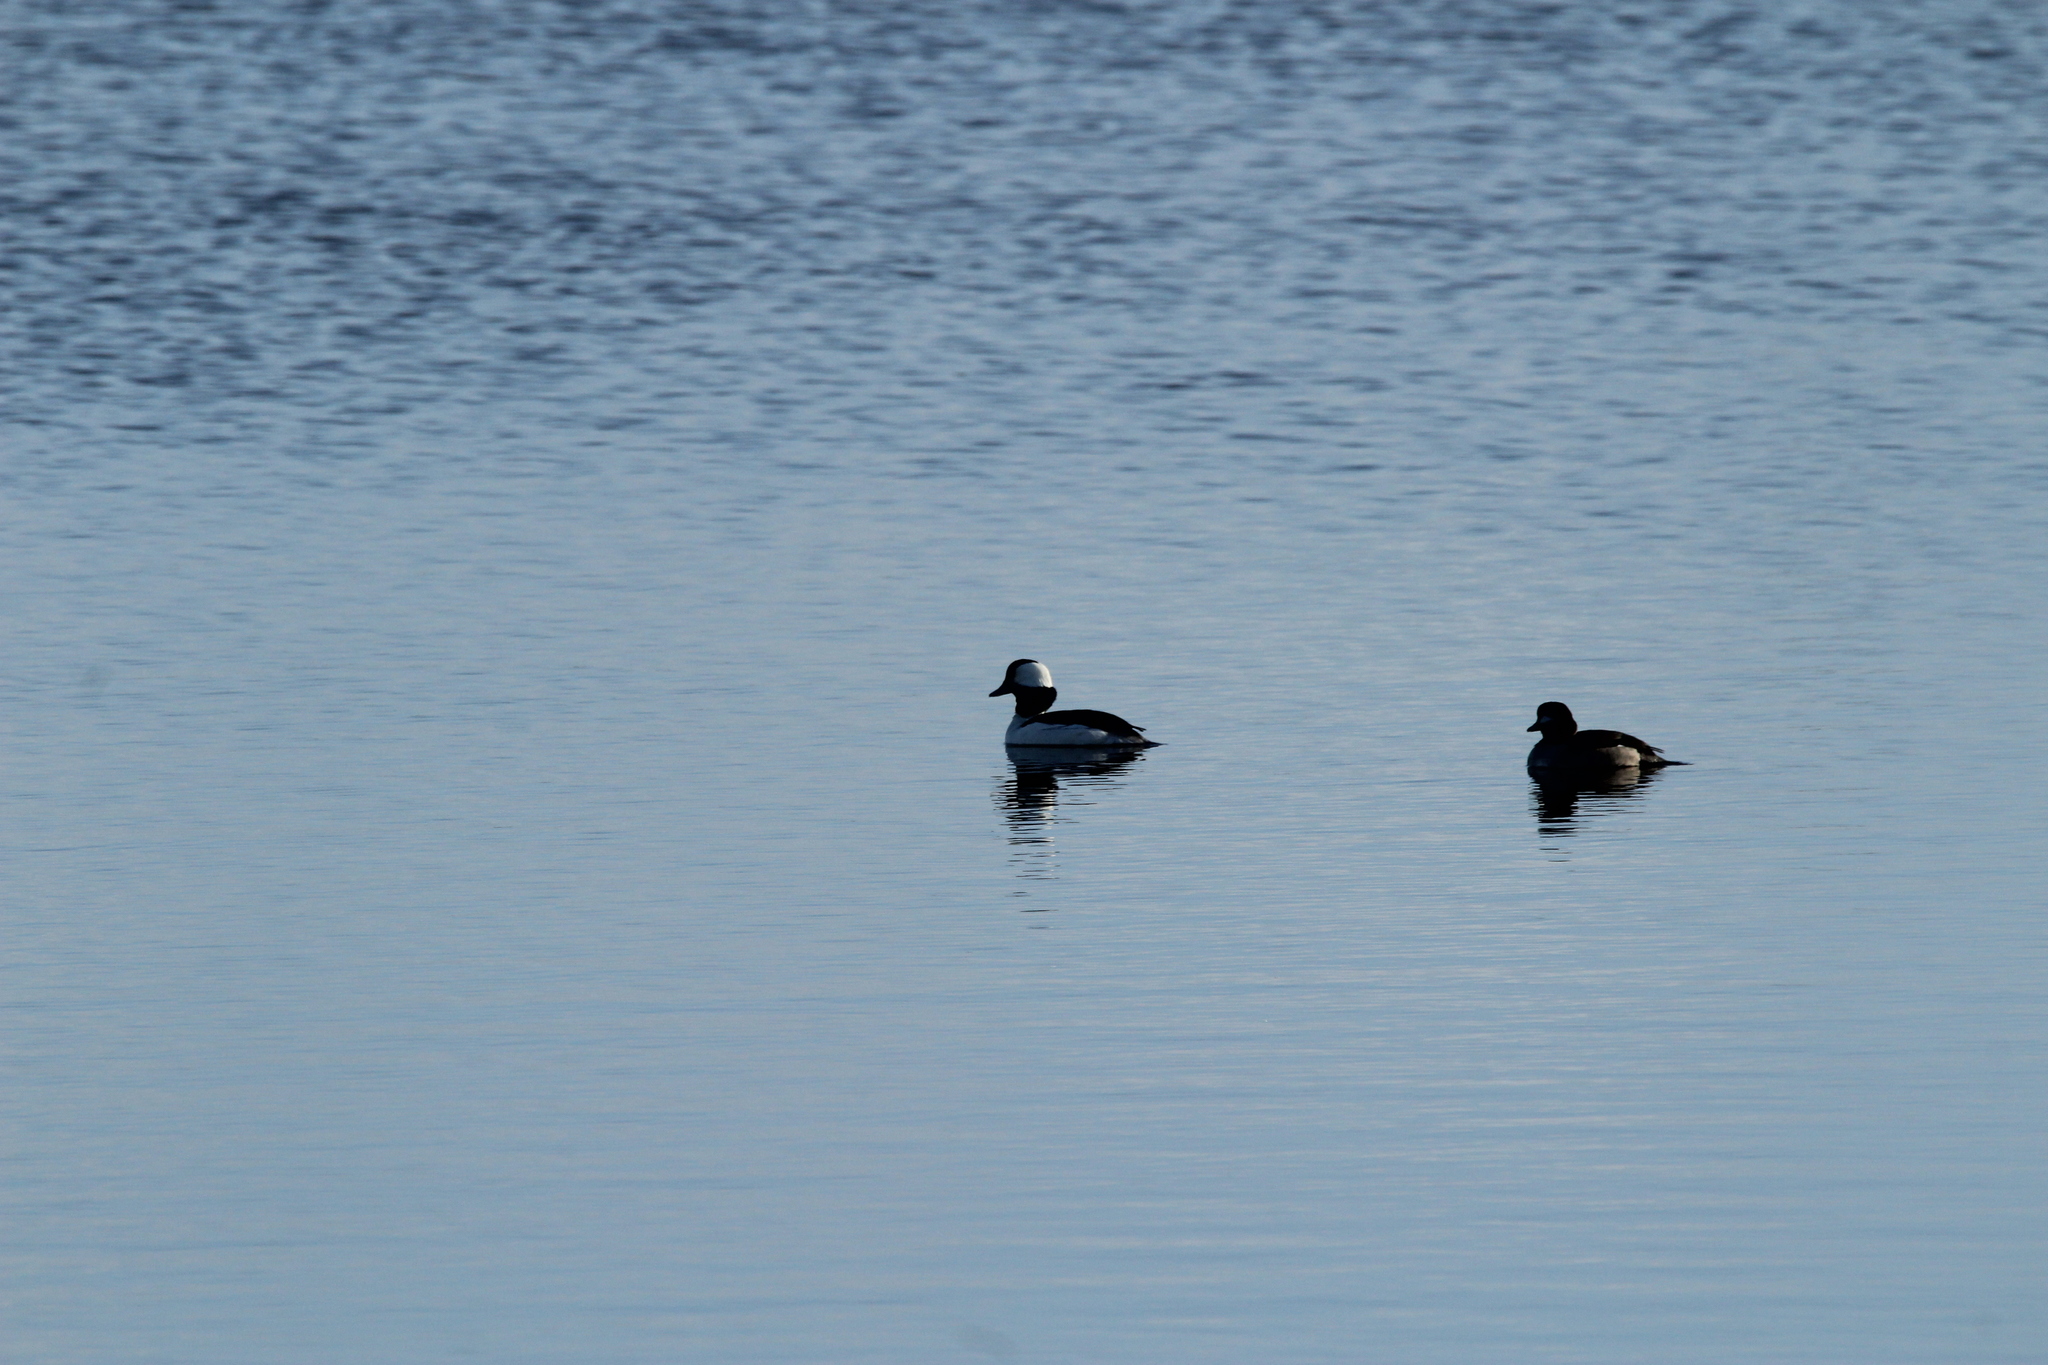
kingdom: Animalia
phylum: Chordata
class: Aves
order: Anseriformes
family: Anatidae
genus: Bucephala
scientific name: Bucephala albeola
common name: Bufflehead
